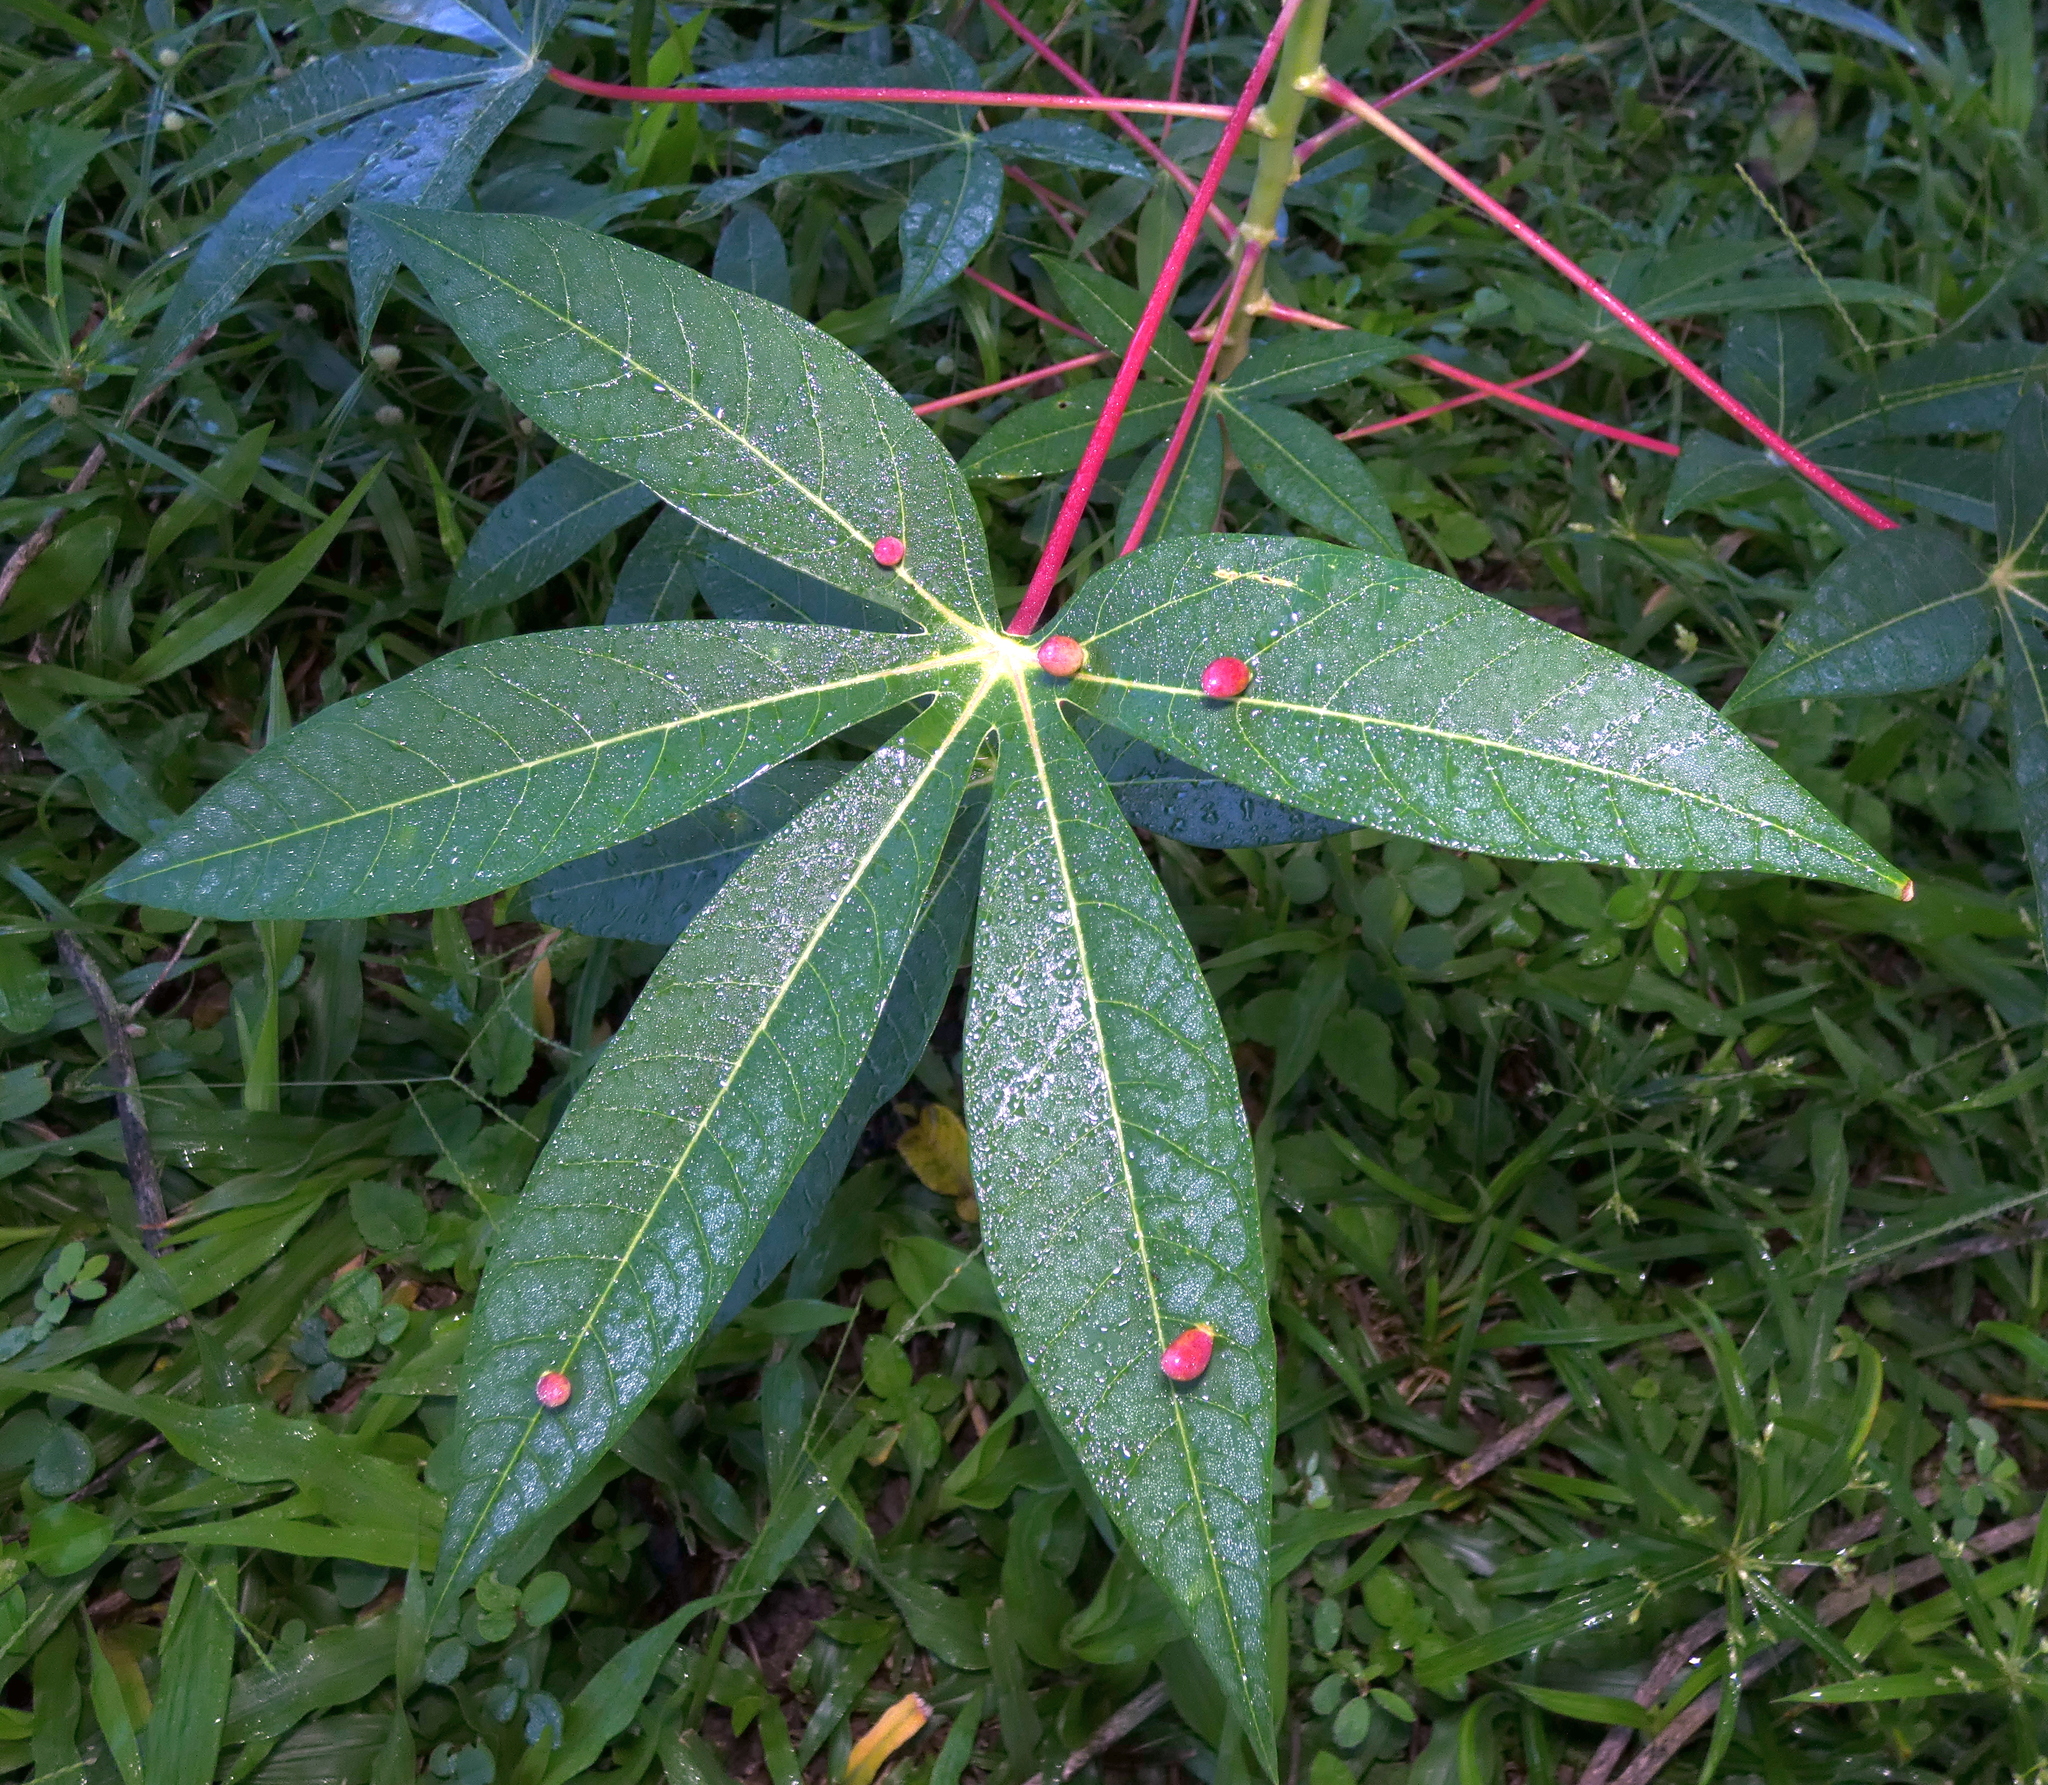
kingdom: Animalia
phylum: Arthropoda
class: Insecta
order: Diptera
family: Cecidomyiidae
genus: Iatrophobia
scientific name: Iatrophobia brasiliensis
